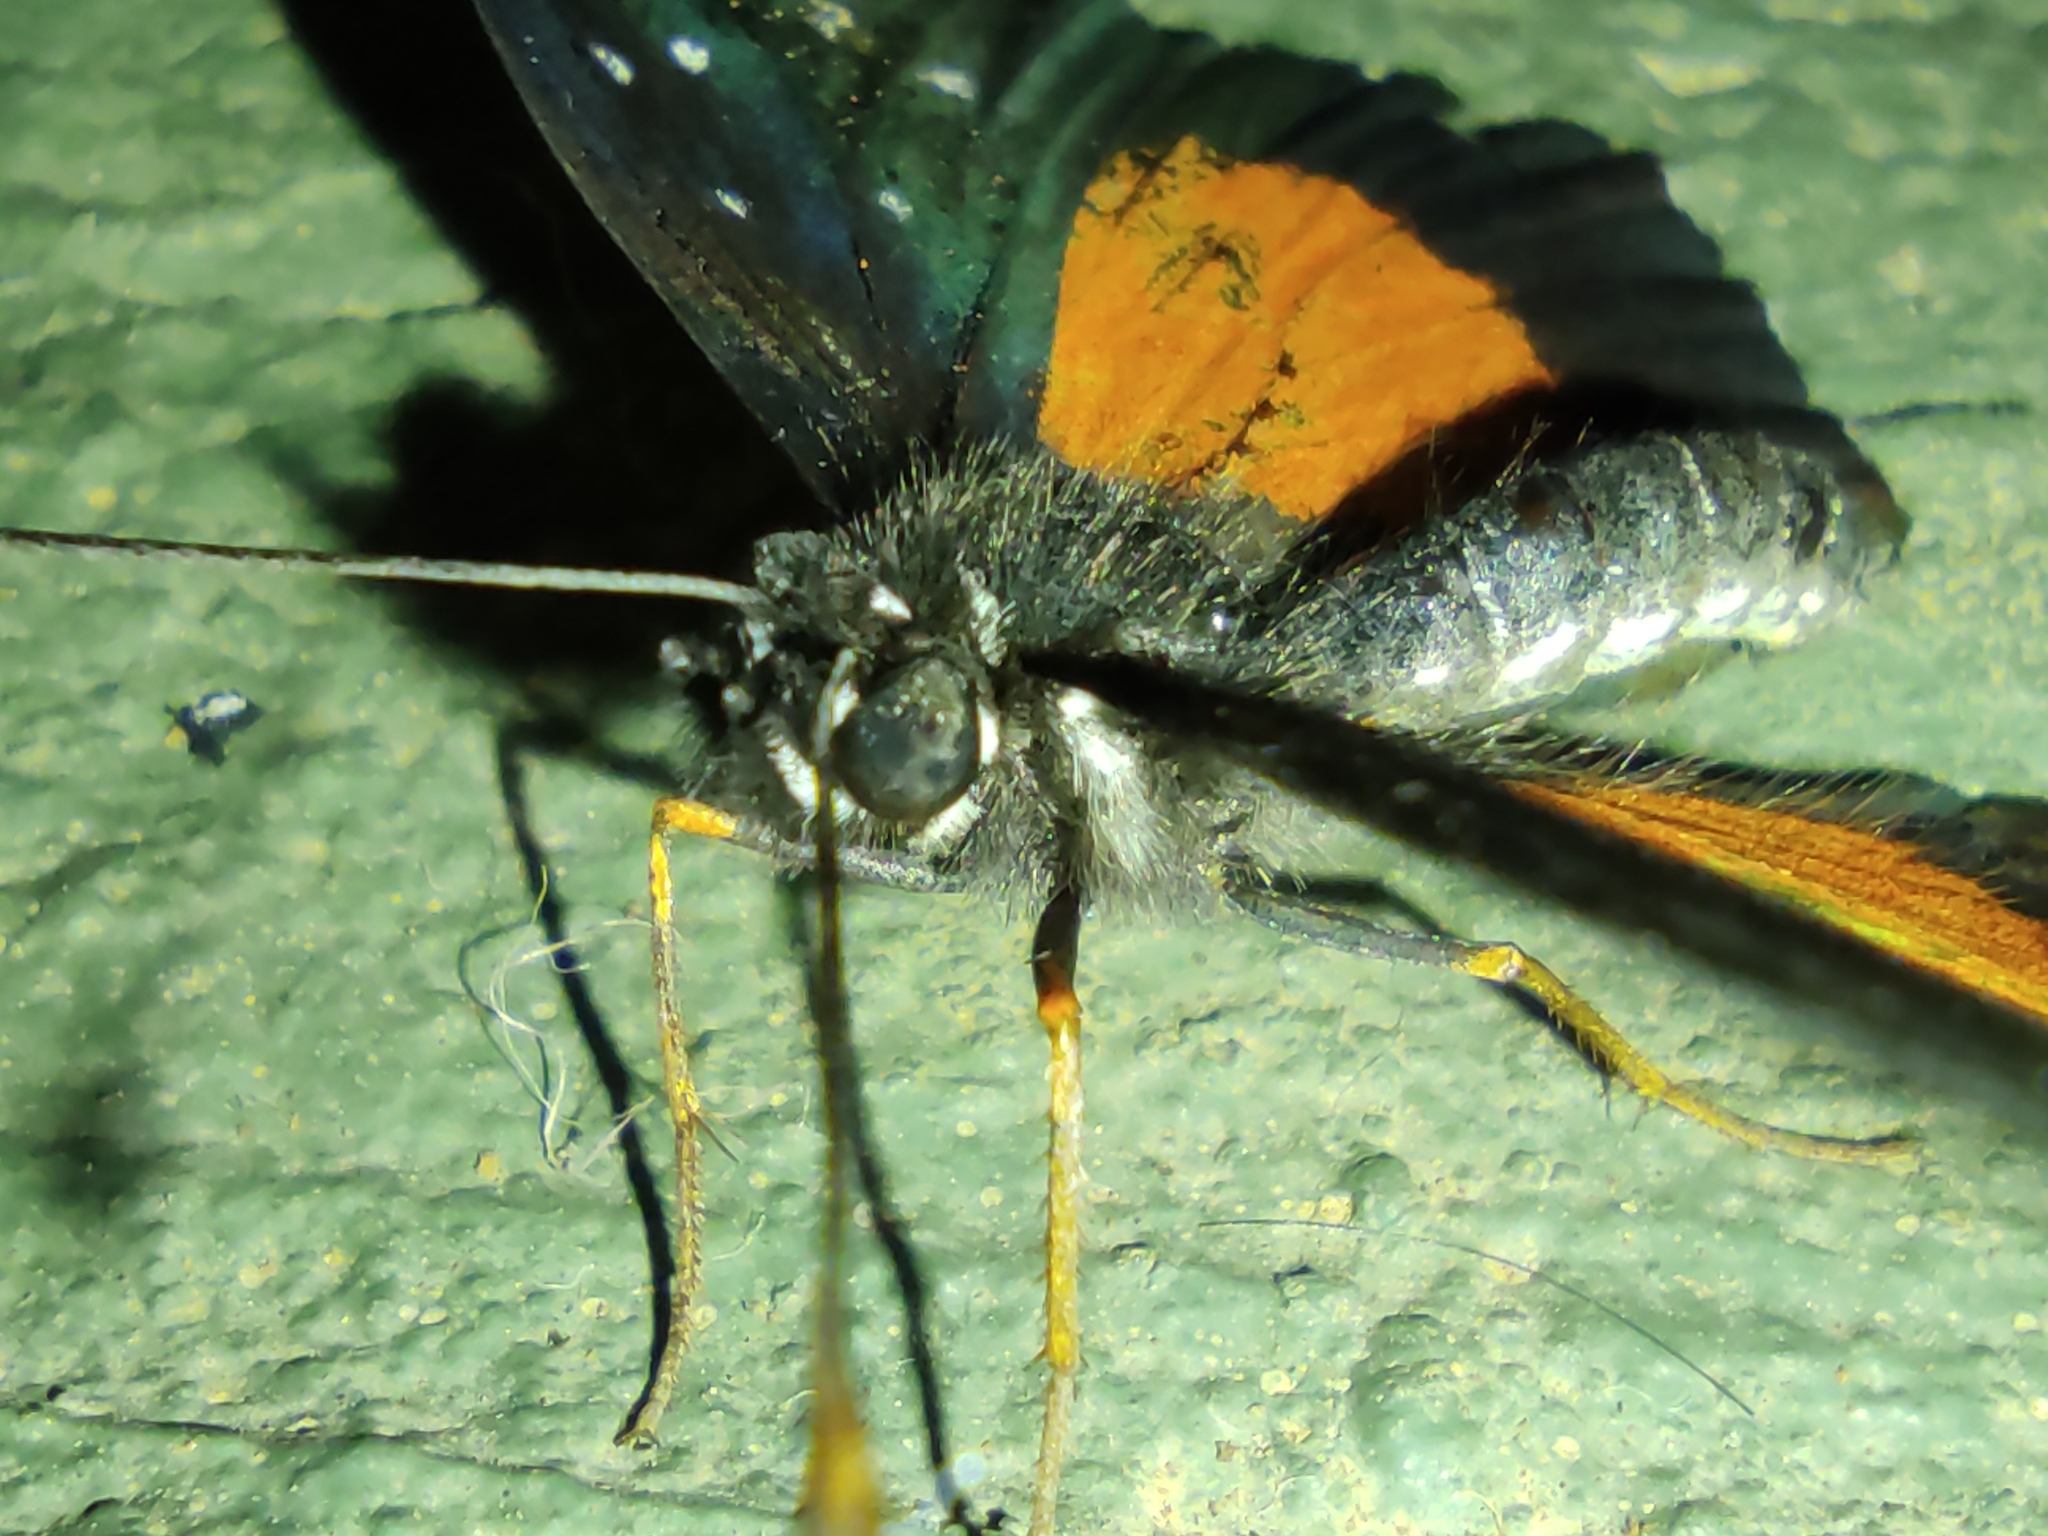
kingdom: Animalia
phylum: Arthropoda
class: Insecta
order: Lepidoptera
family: Nymphalidae
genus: Chlosyne
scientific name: Chlosyne janais
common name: Crimson patch
